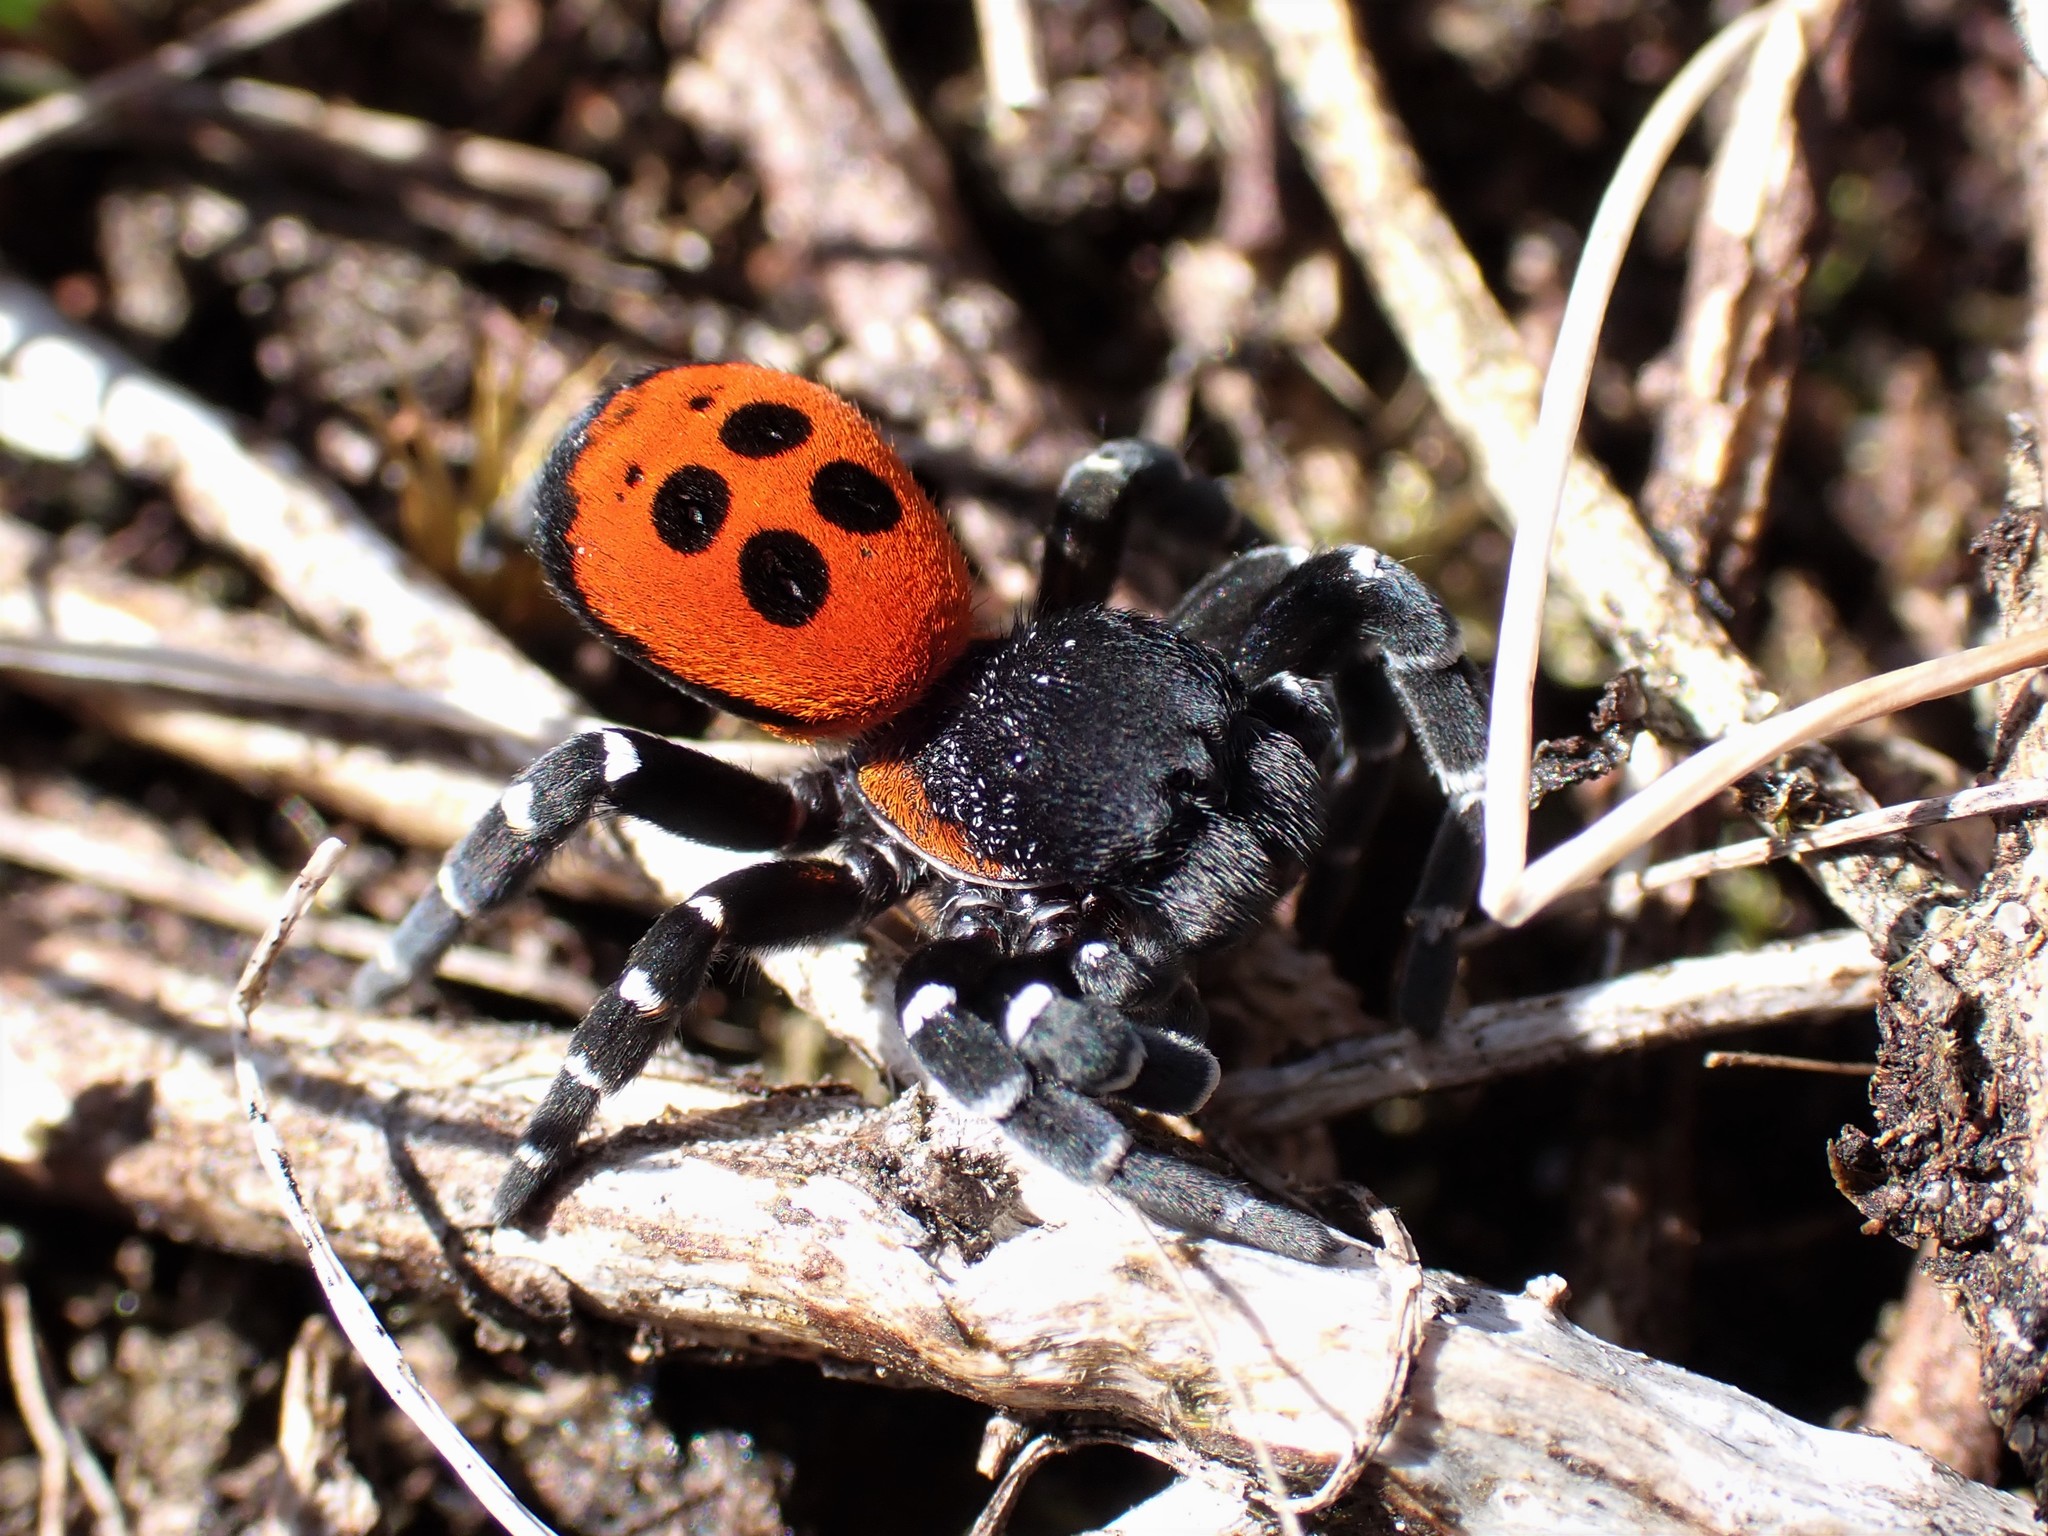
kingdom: Animalia
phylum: Arthropoda
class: Arachnida
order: Araneae
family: Eresidae
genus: Eresus
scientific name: Eresus sandaliatus
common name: Ladybird spider
